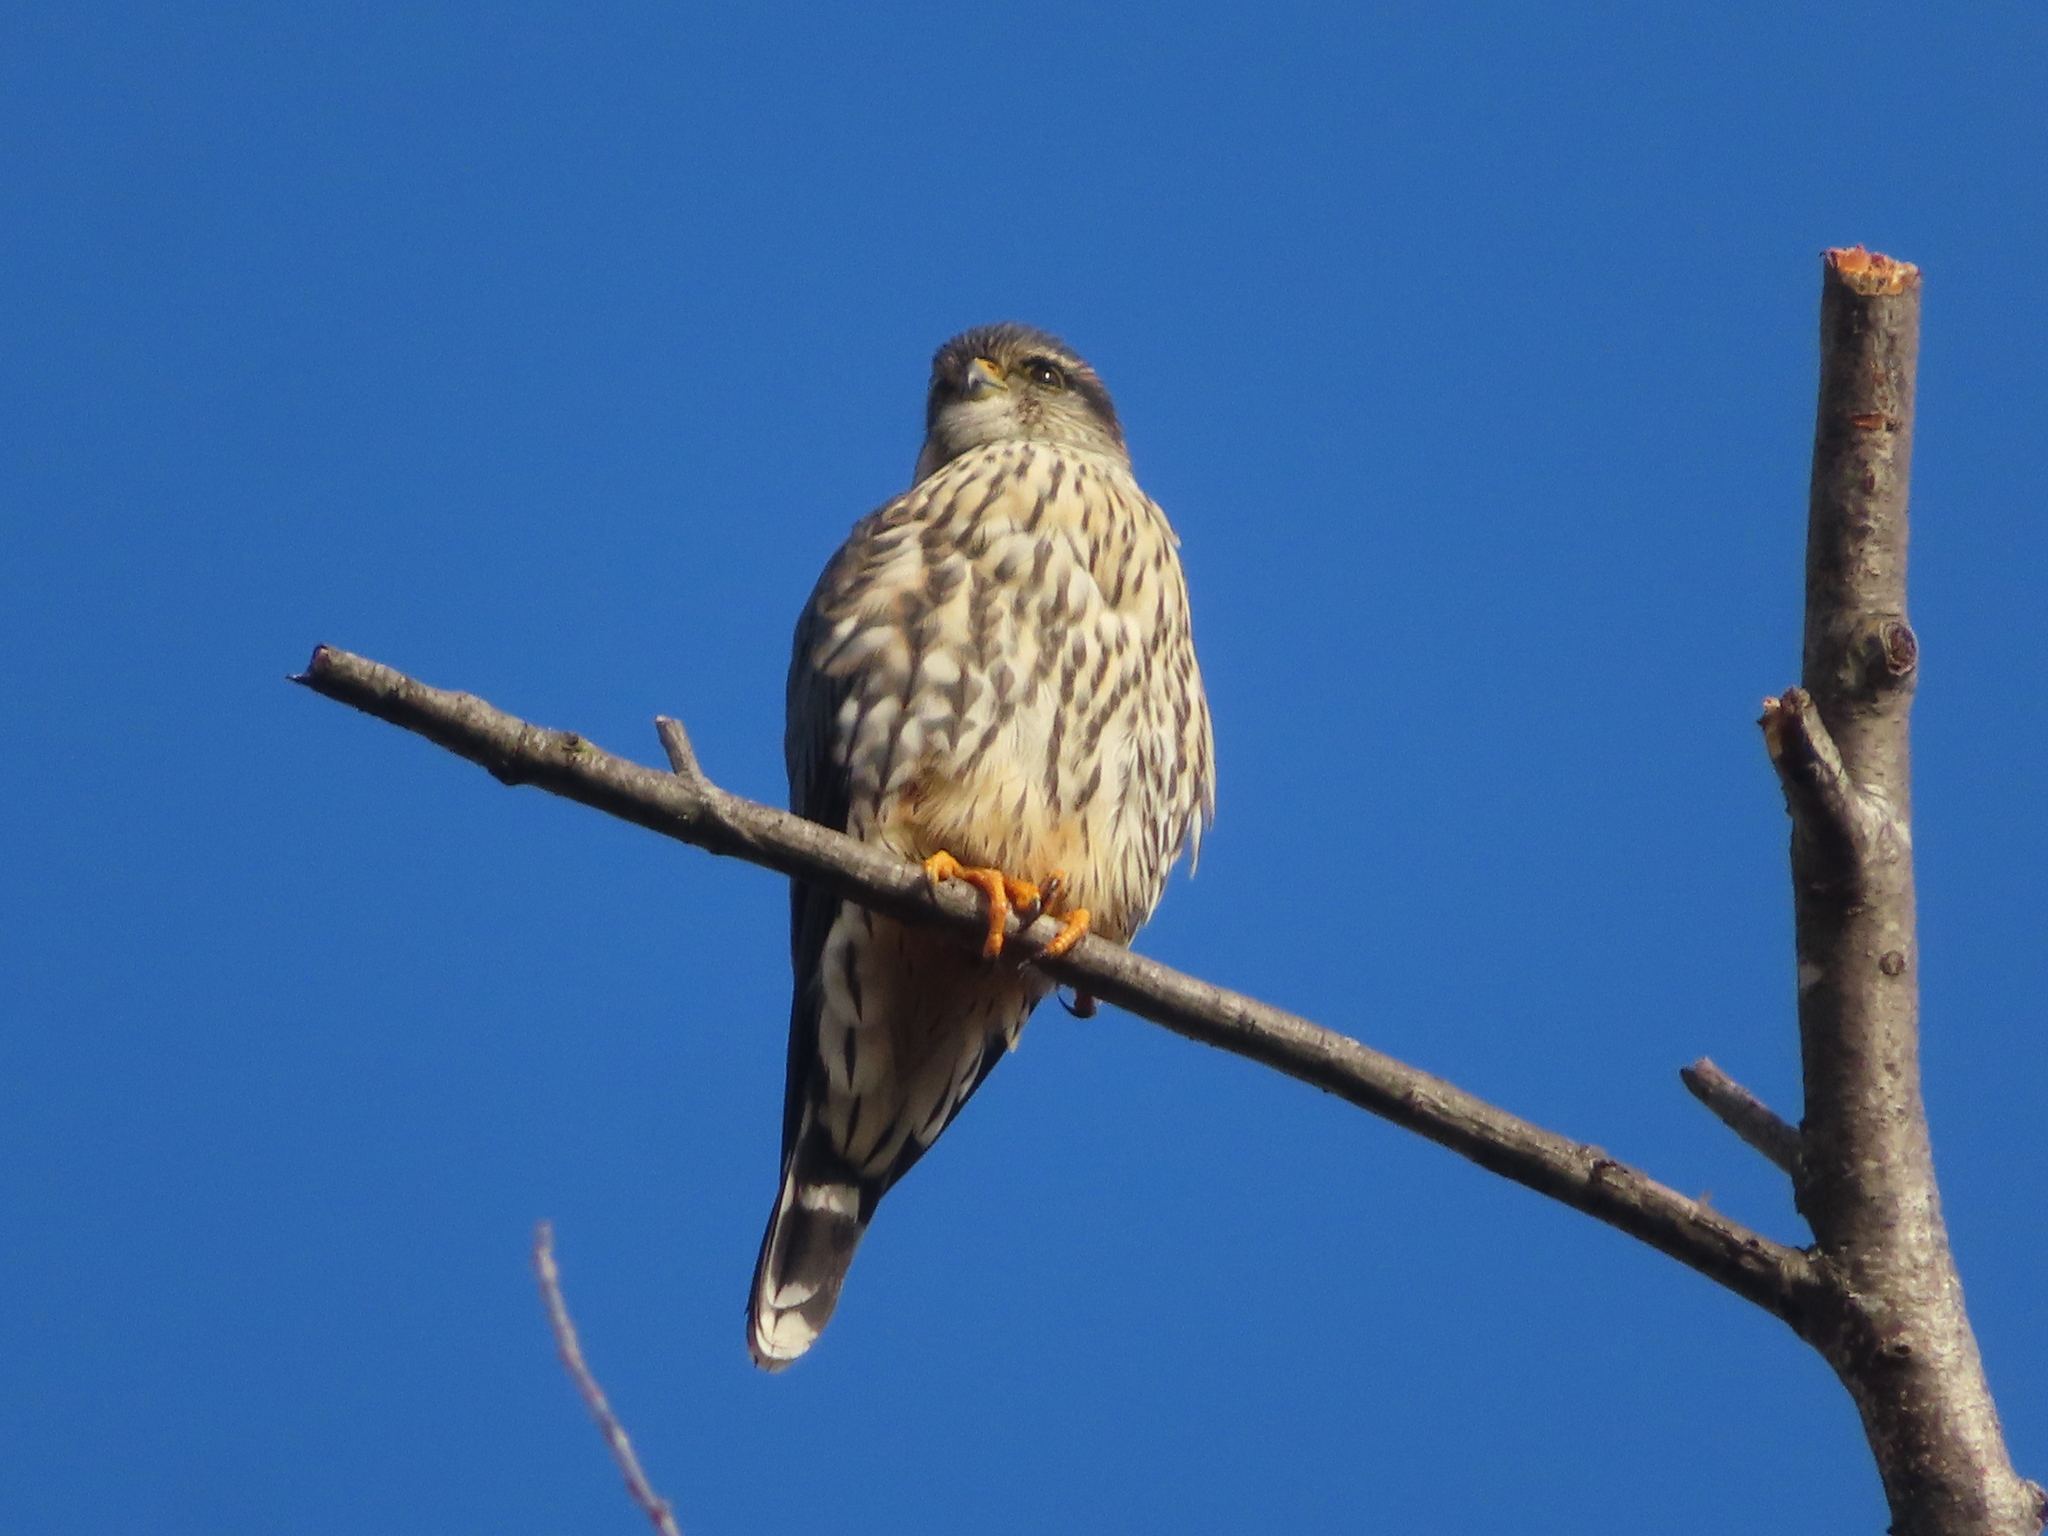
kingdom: Animalia
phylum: Chordata
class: Aves
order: Falconiformes
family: Falconidae
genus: Falco
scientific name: Falco columbarius
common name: Merlin
